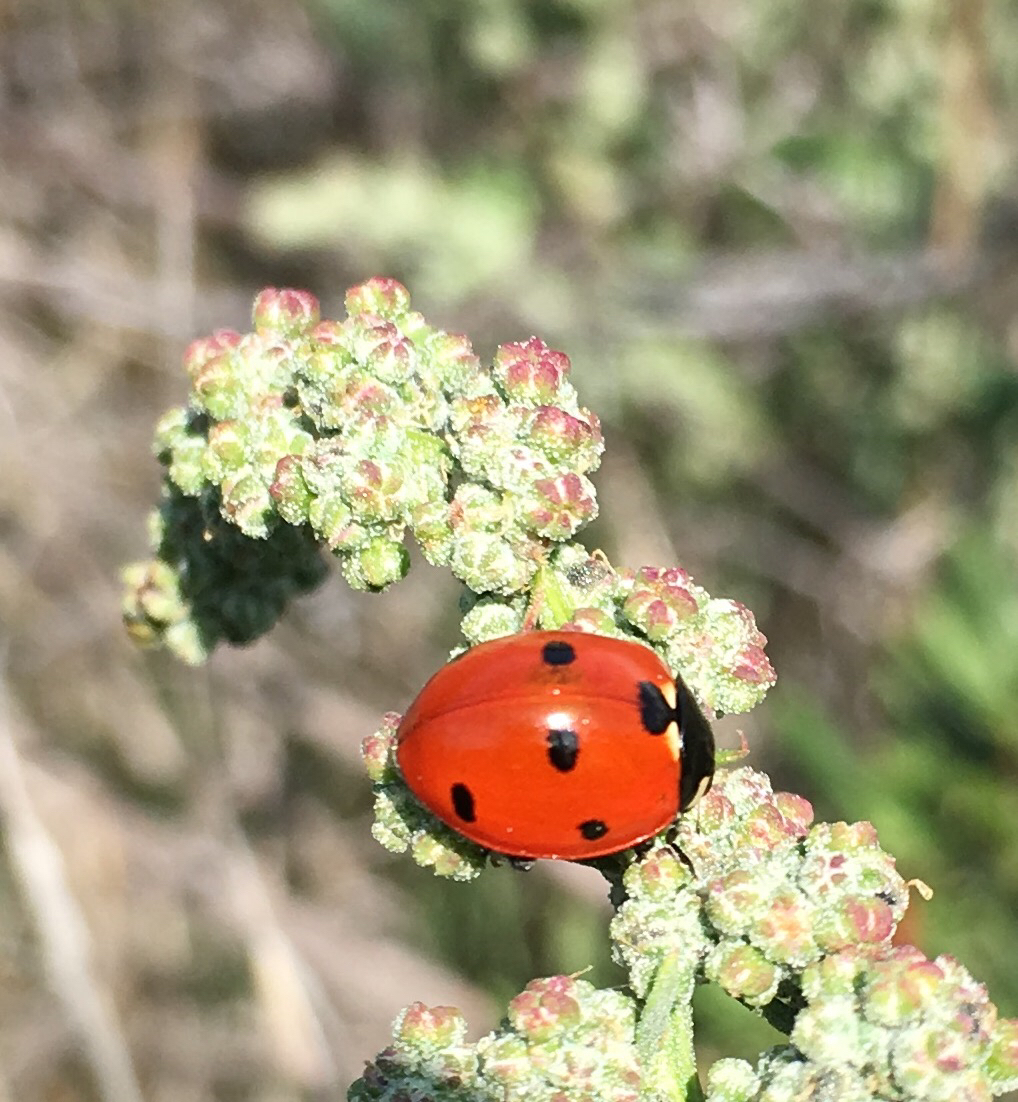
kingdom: Animalia
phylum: Arthropoda
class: Insecta
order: Coleoptera
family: Coccinellidae
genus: Coccinella
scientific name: Coccinella septempunctata
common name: Sevenspotted lady beetle
